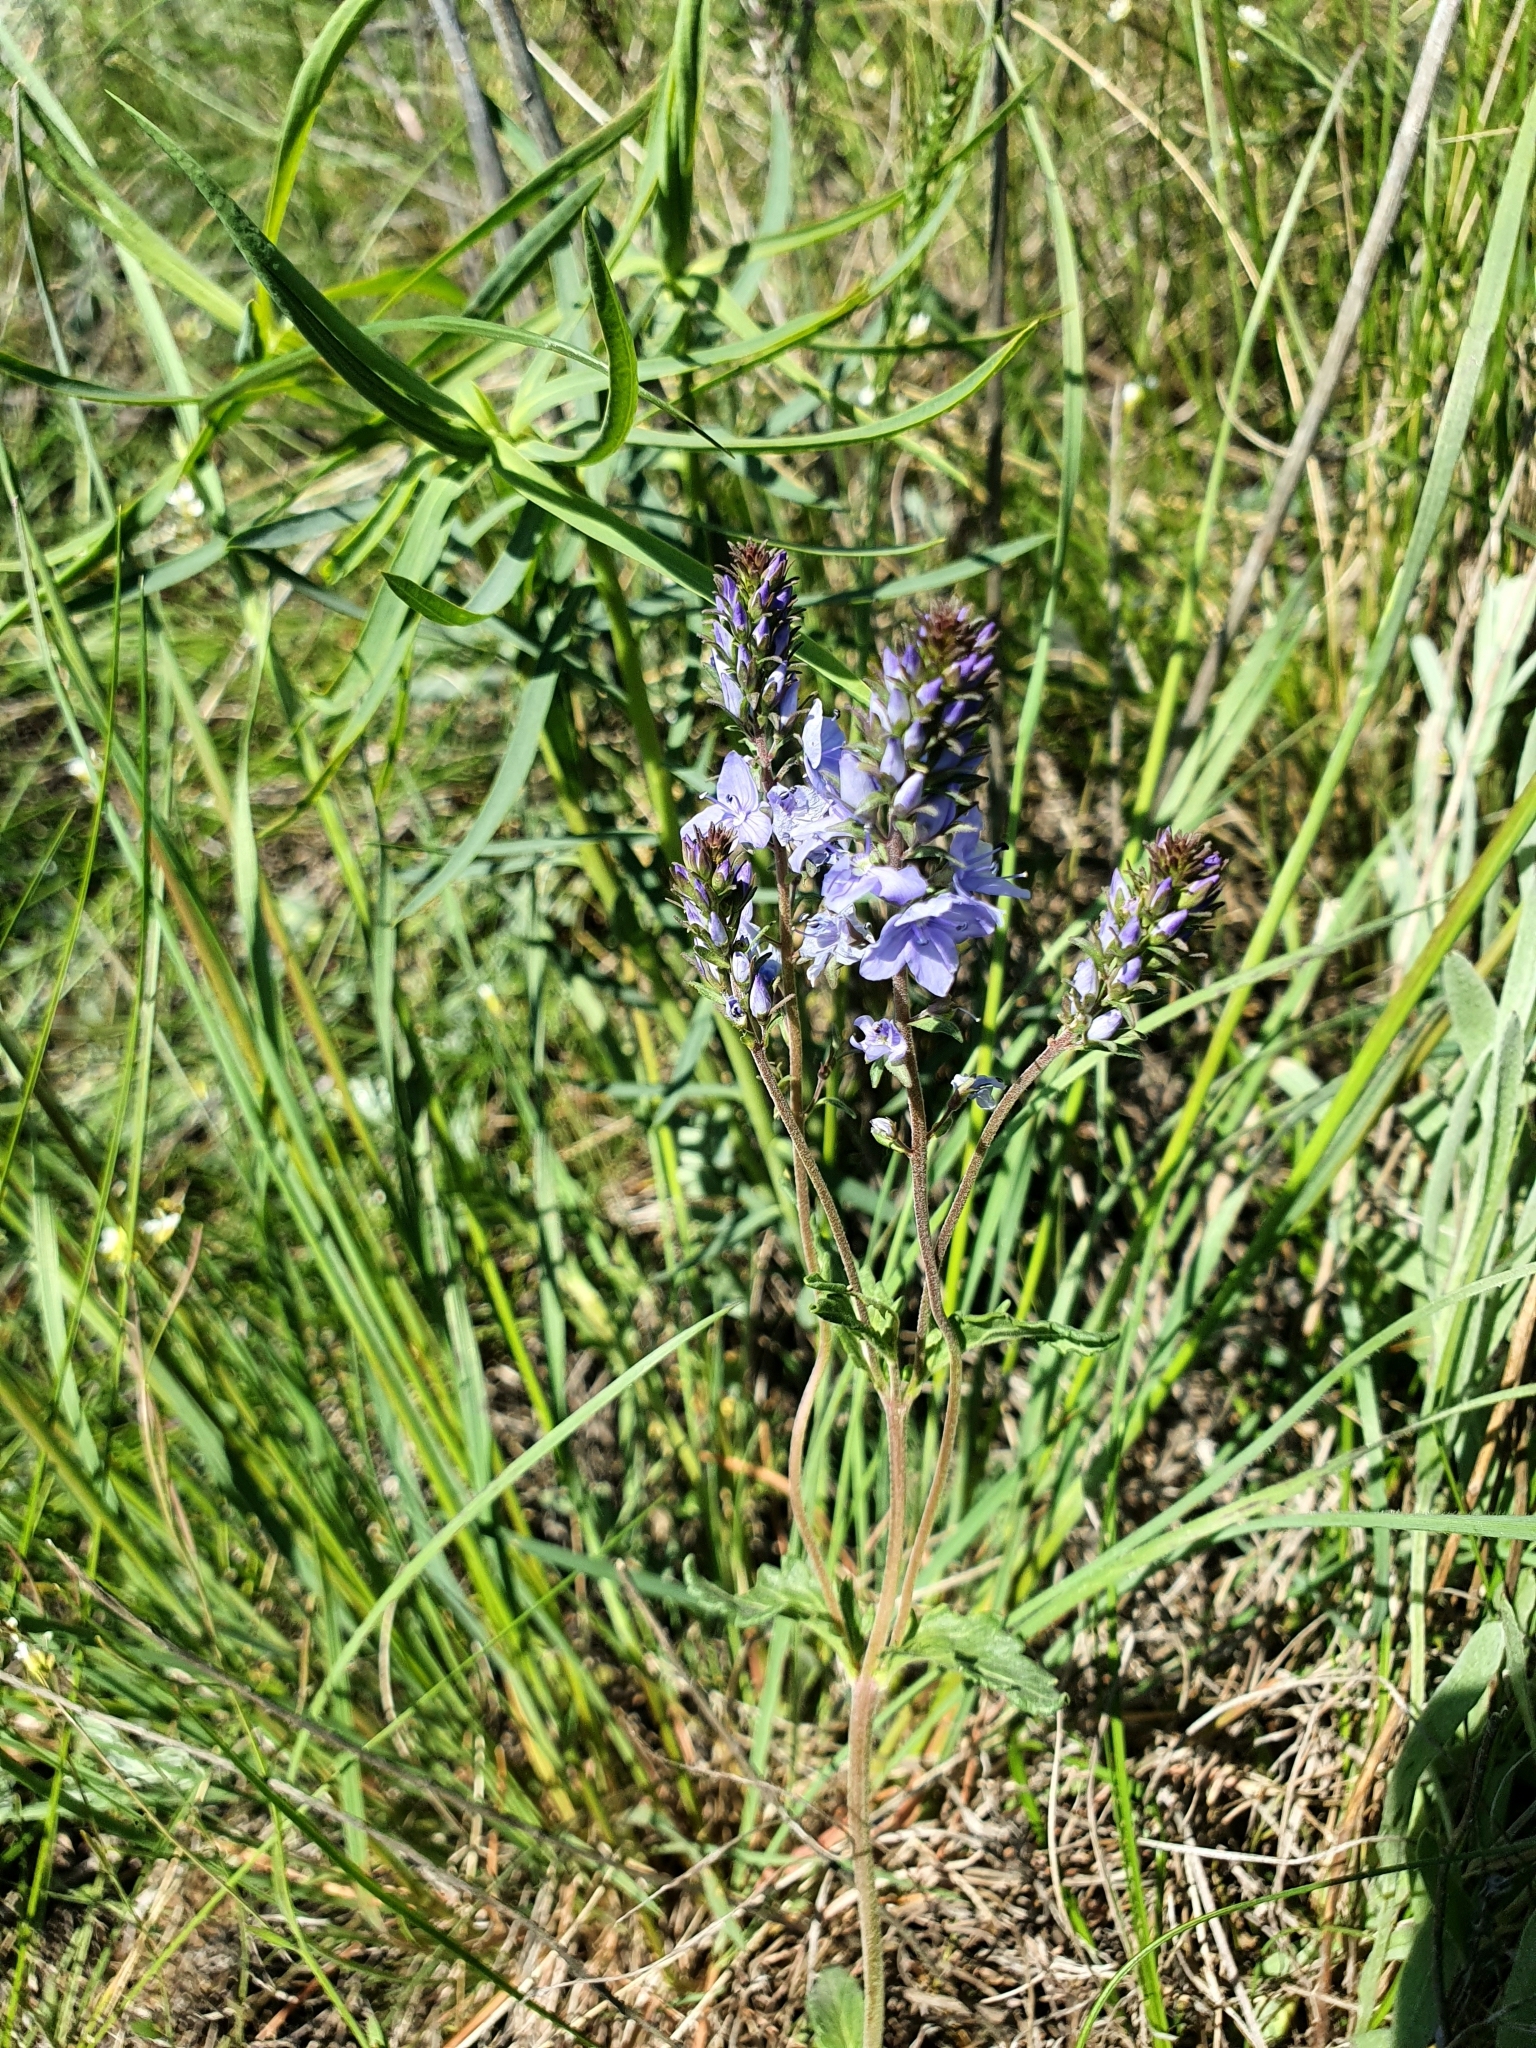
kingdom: Plantae
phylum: Tracheophyta
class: Magnoliopsida
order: Lamiales
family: Plantaginaceae
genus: Veronica
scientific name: Veronica prostrata
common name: Prostrate speedwell
